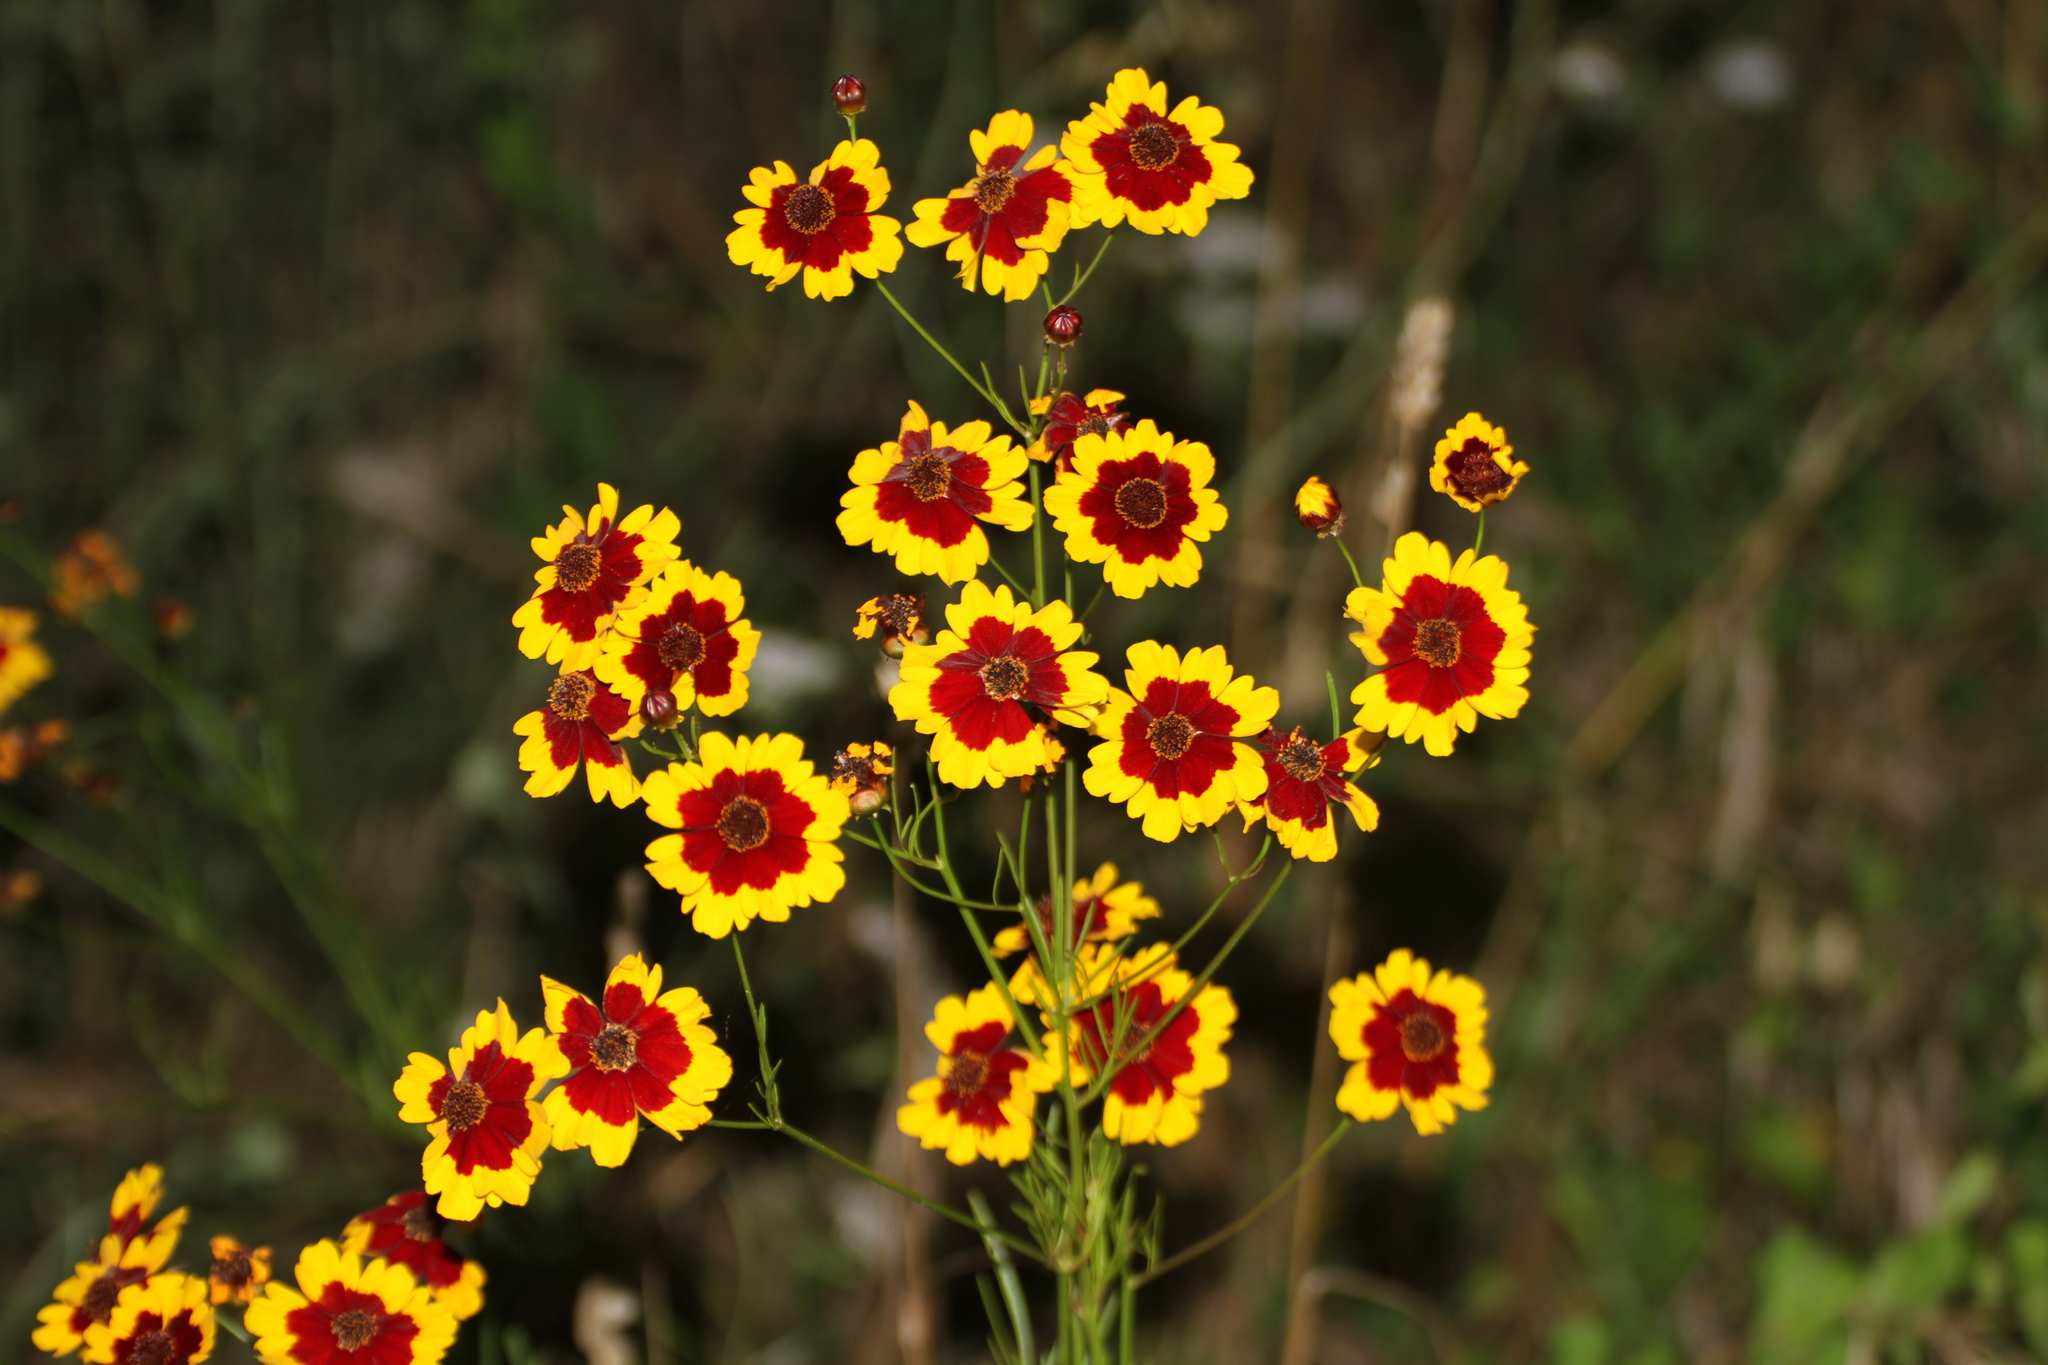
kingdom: Plantae
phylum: Tracheophyta
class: Magnoliopsida
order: Asterales
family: Asteraceae
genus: Coreopsis
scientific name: Coreopsis tinctoria
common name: Garden tickseed
